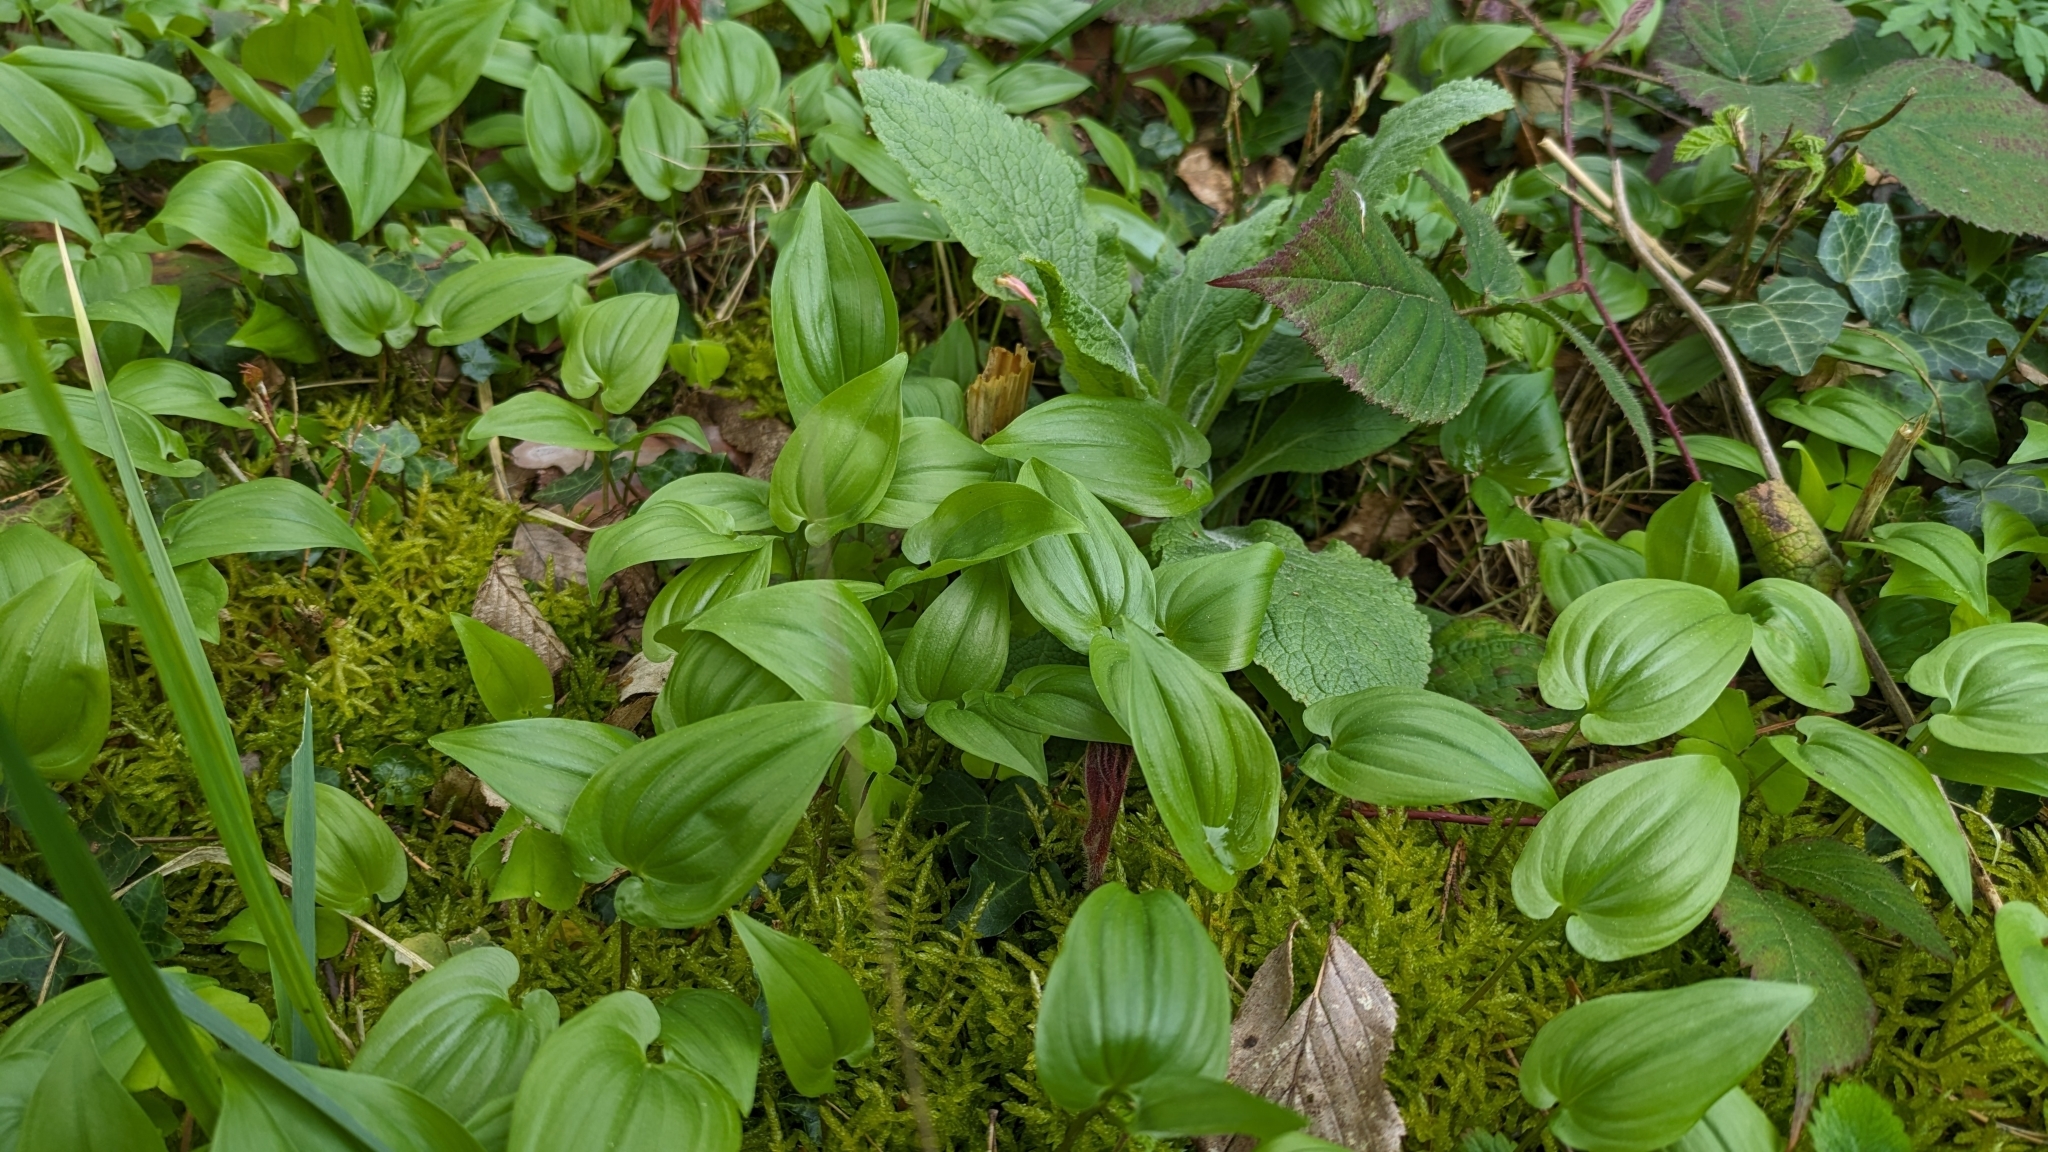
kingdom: Plantae
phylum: Tracheophyta
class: Liliopsida
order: Asparagales
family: Asparagaceae
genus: Maianthemum
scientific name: Maianthemum bifolium
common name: May lily
